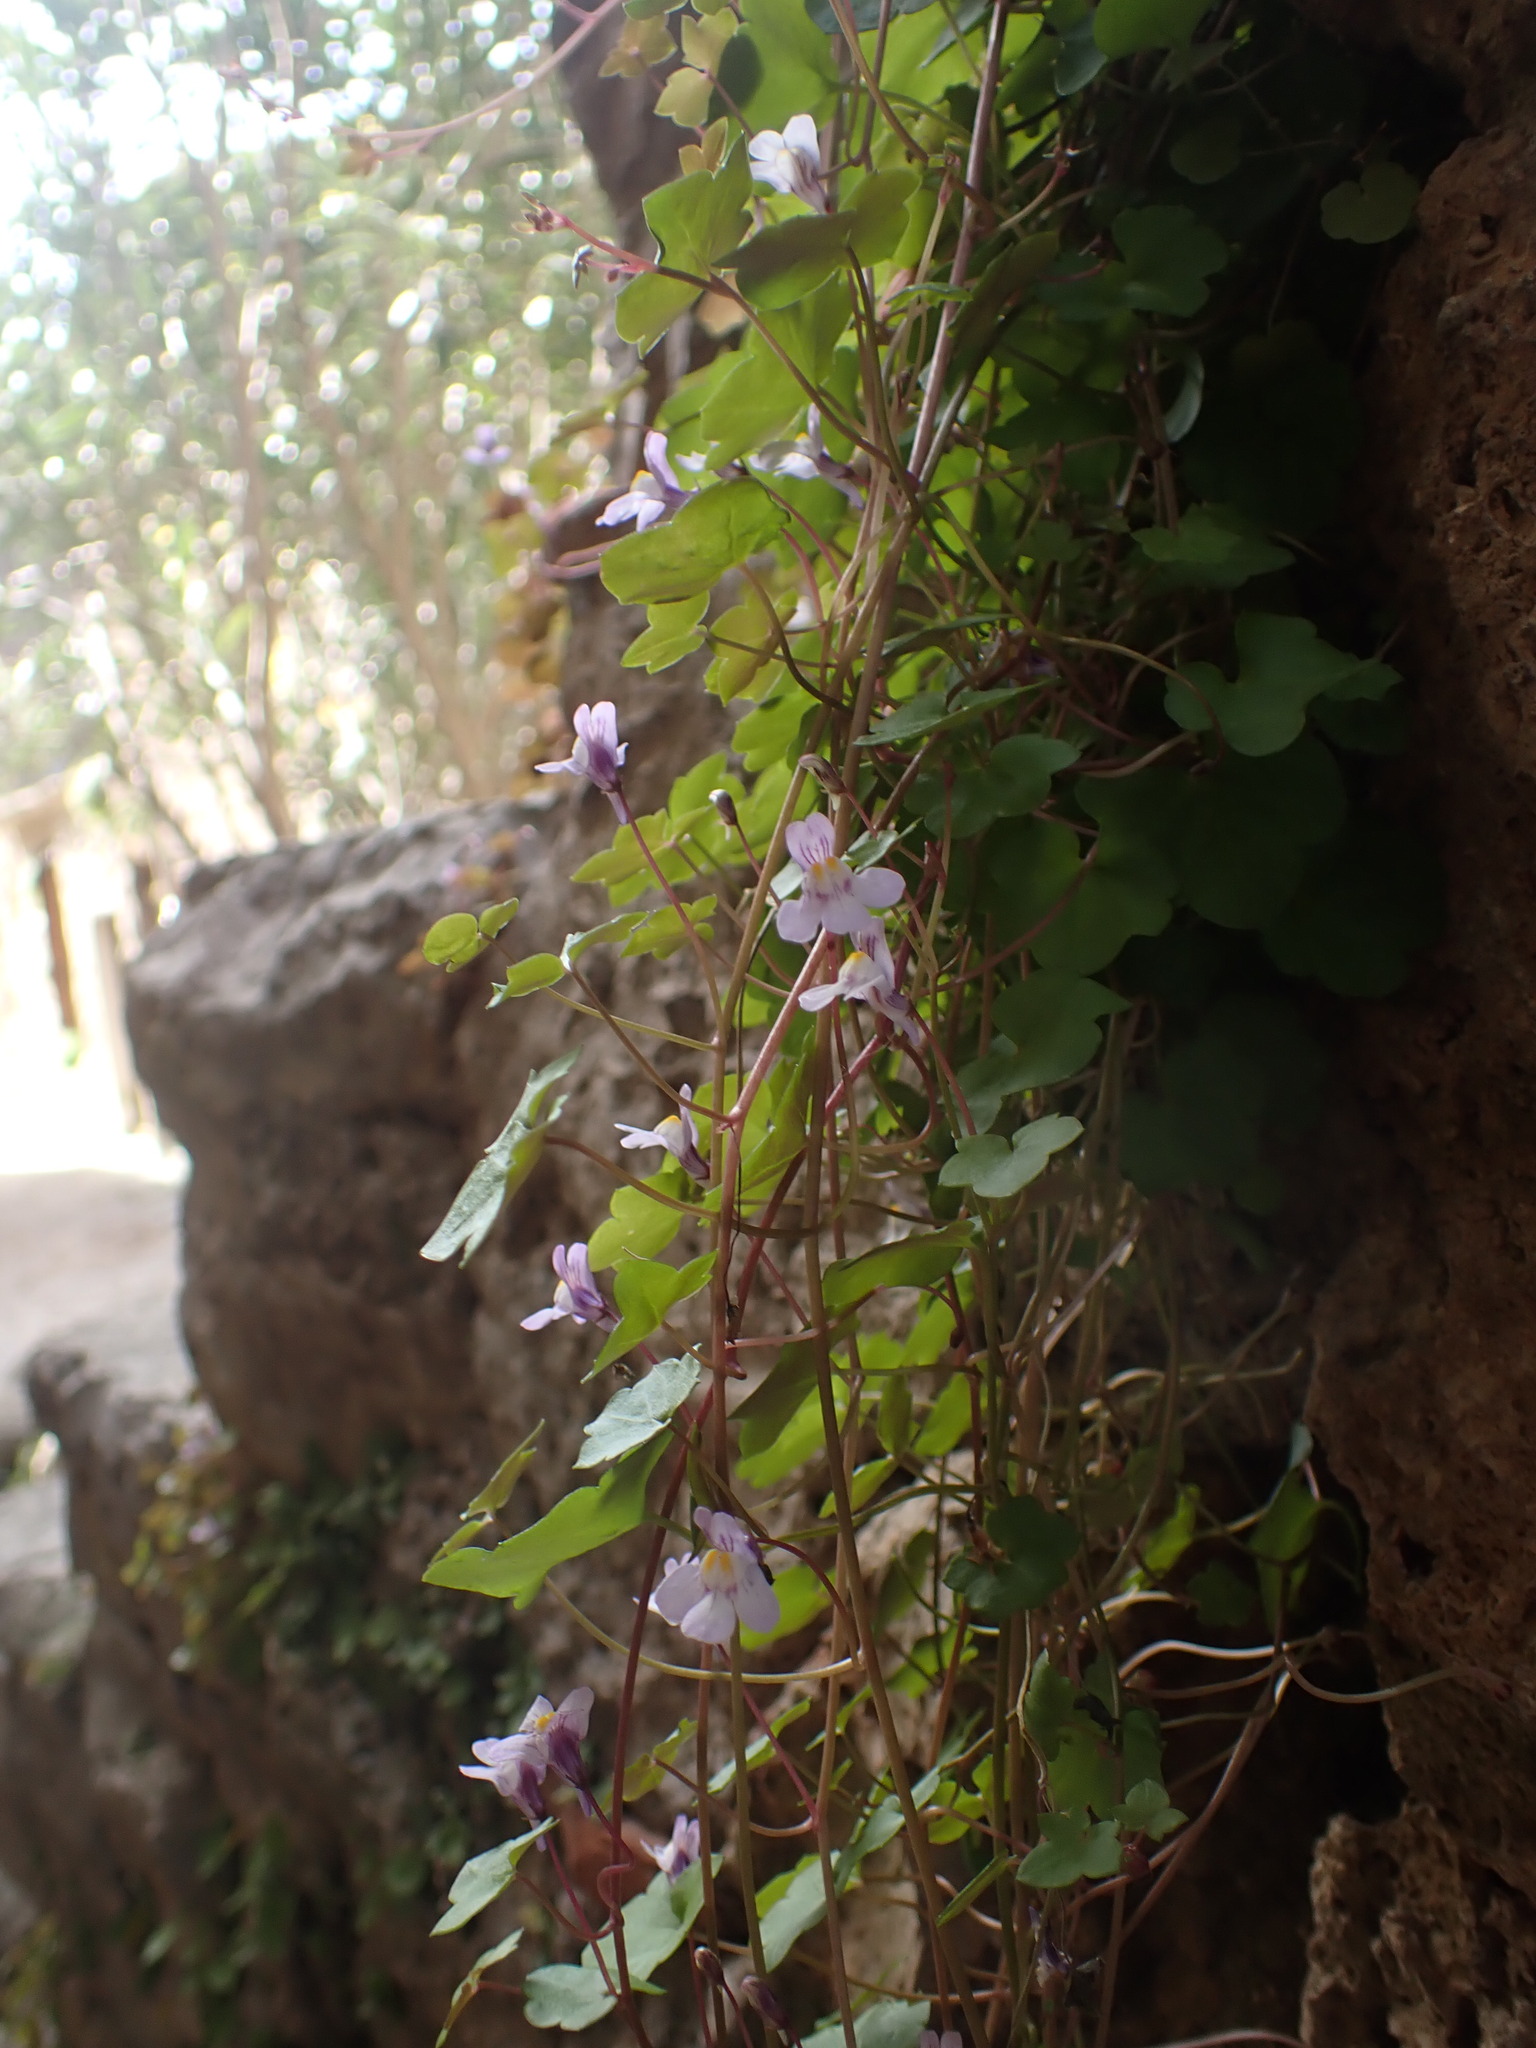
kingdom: Plantae
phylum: Tracheophyta
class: Magnoliopsida
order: Lamiales
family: Plantaginaceae
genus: Cymbalaria
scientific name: Cymbalaria muralis
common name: Ivy-leaved toadflax
